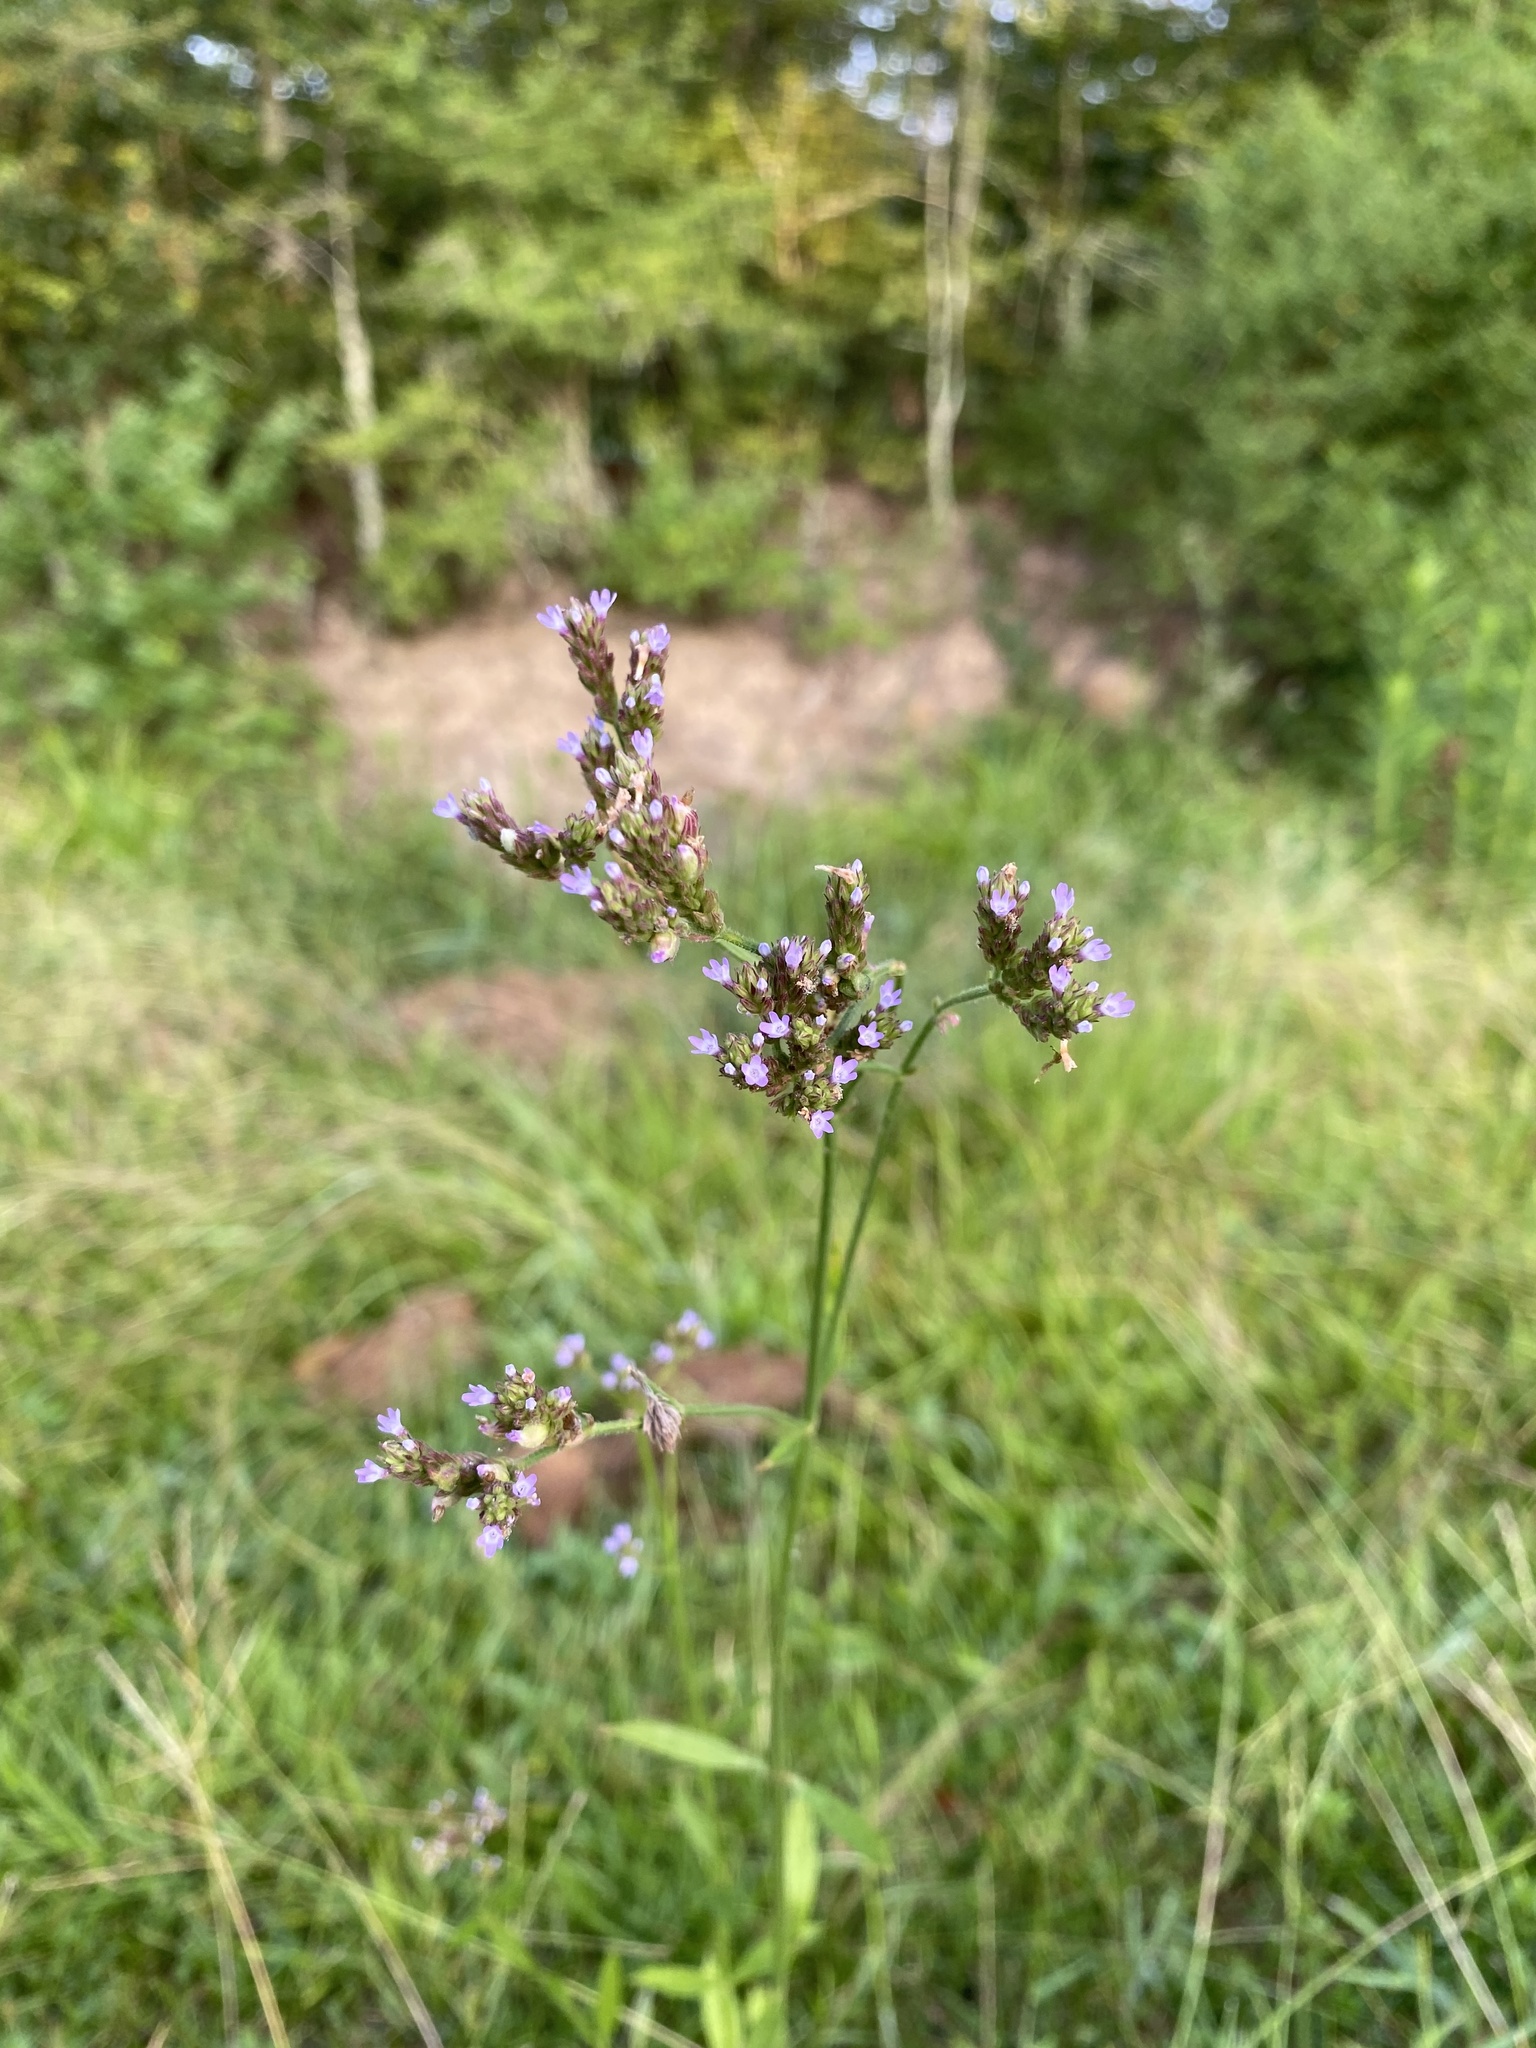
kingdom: Plantae
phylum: Tracheophyta
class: Magnoliopsida
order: Lamiales
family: Verbenaceae
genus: Verbena
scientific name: Verbena brasiliensis
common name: Brazilian vervain
